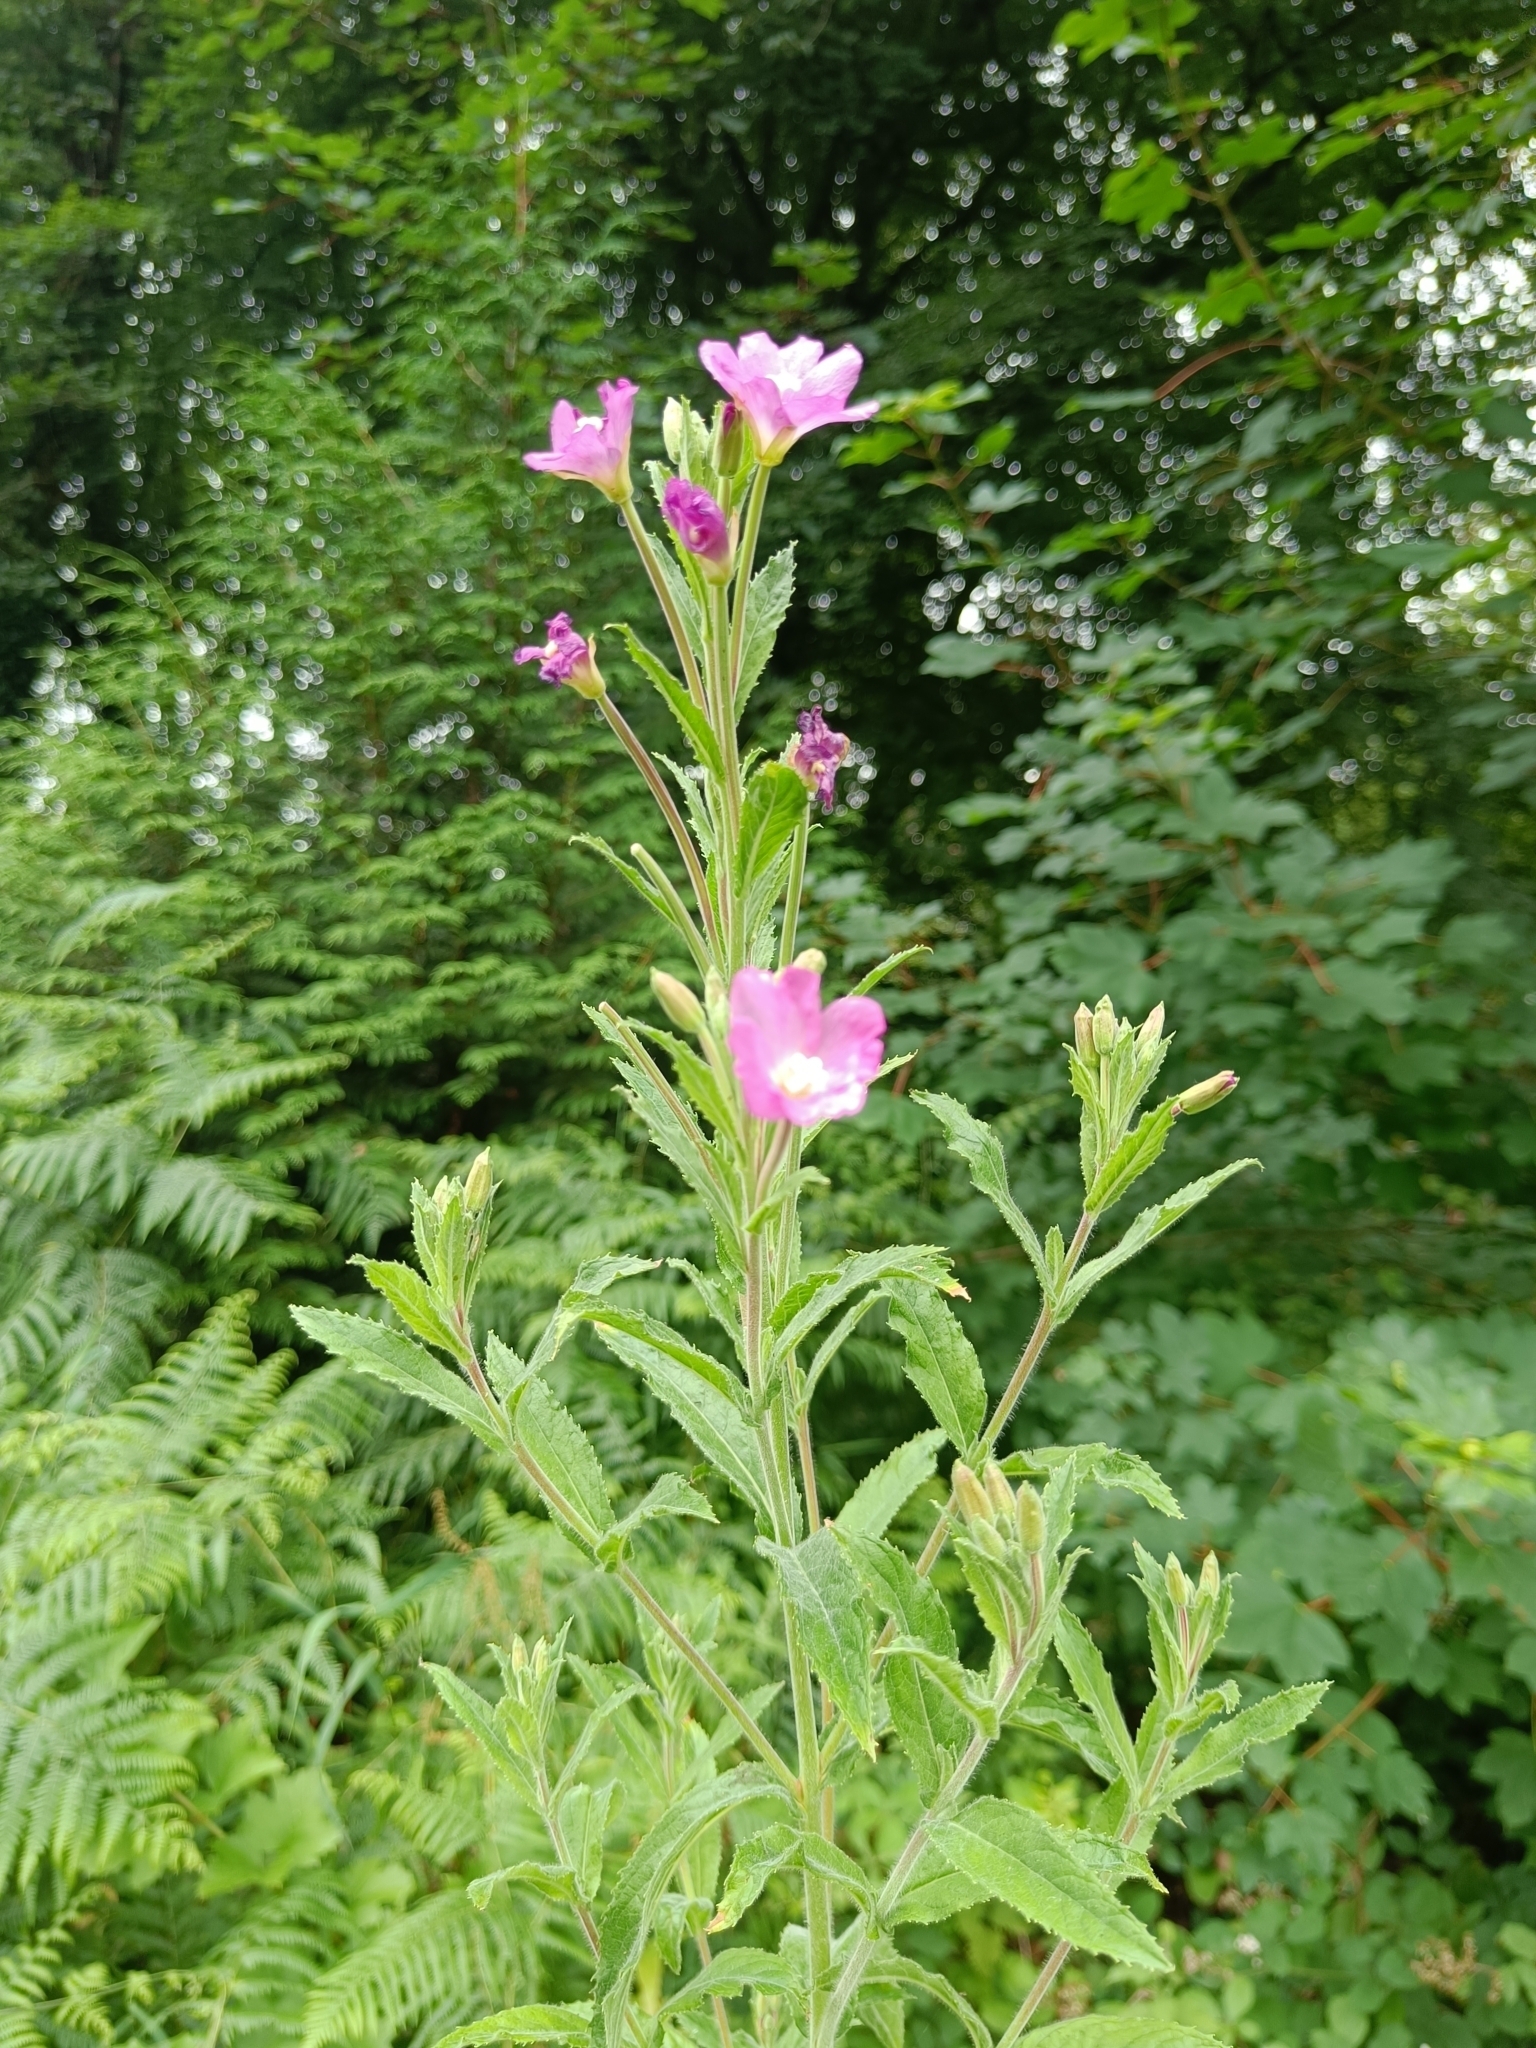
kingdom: Plantae
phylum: Tracheophyta
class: Magnoliopsida
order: Myrtales
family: Onagraceae
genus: Epilobium
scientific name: Epilobium hirsutum
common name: Great willowherb
